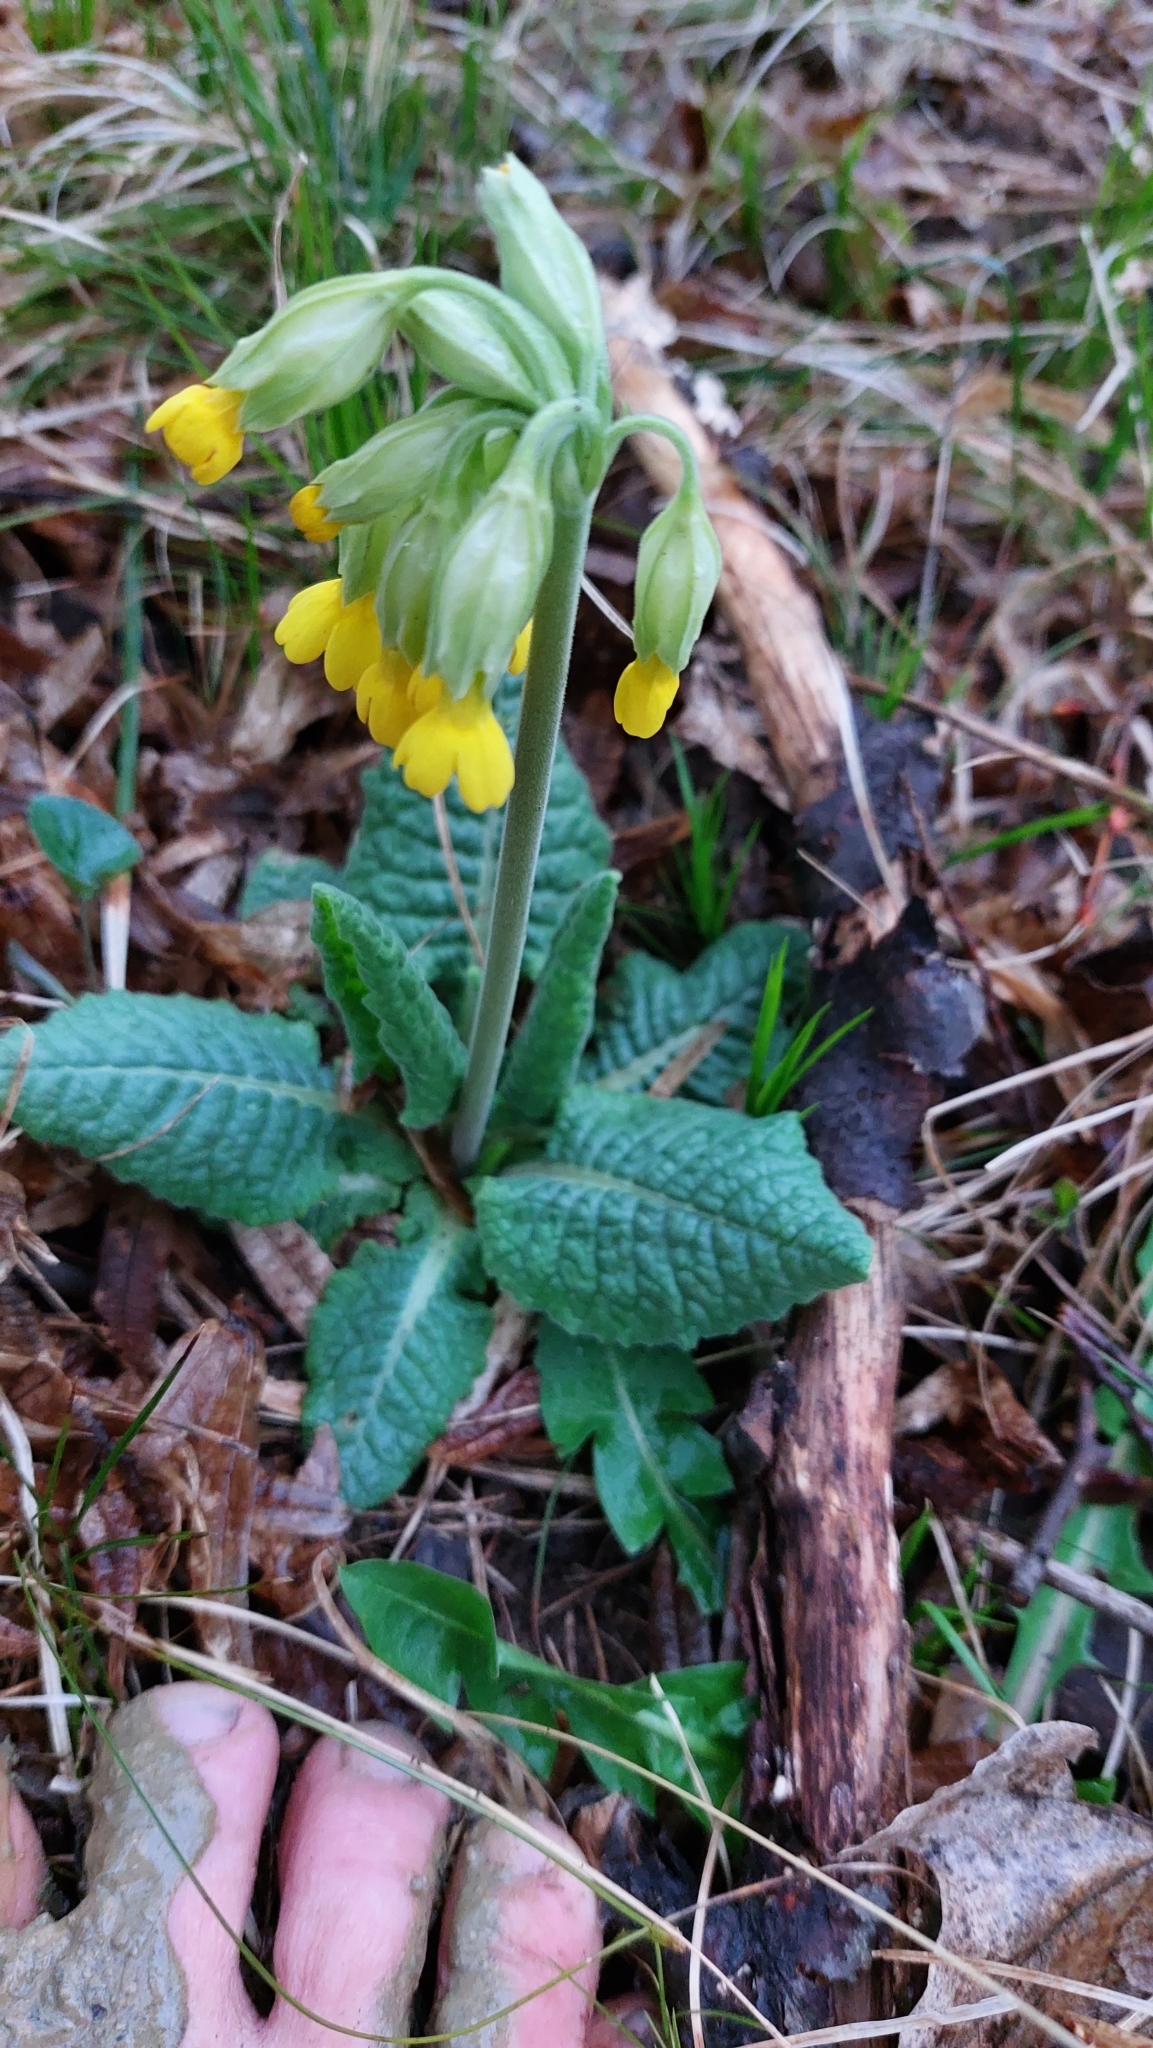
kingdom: Plantae
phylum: Tracheophyta
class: Magnoliopsida
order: Ericales
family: Primulaceae
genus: Primula
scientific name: Primula veris
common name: Cowslip
